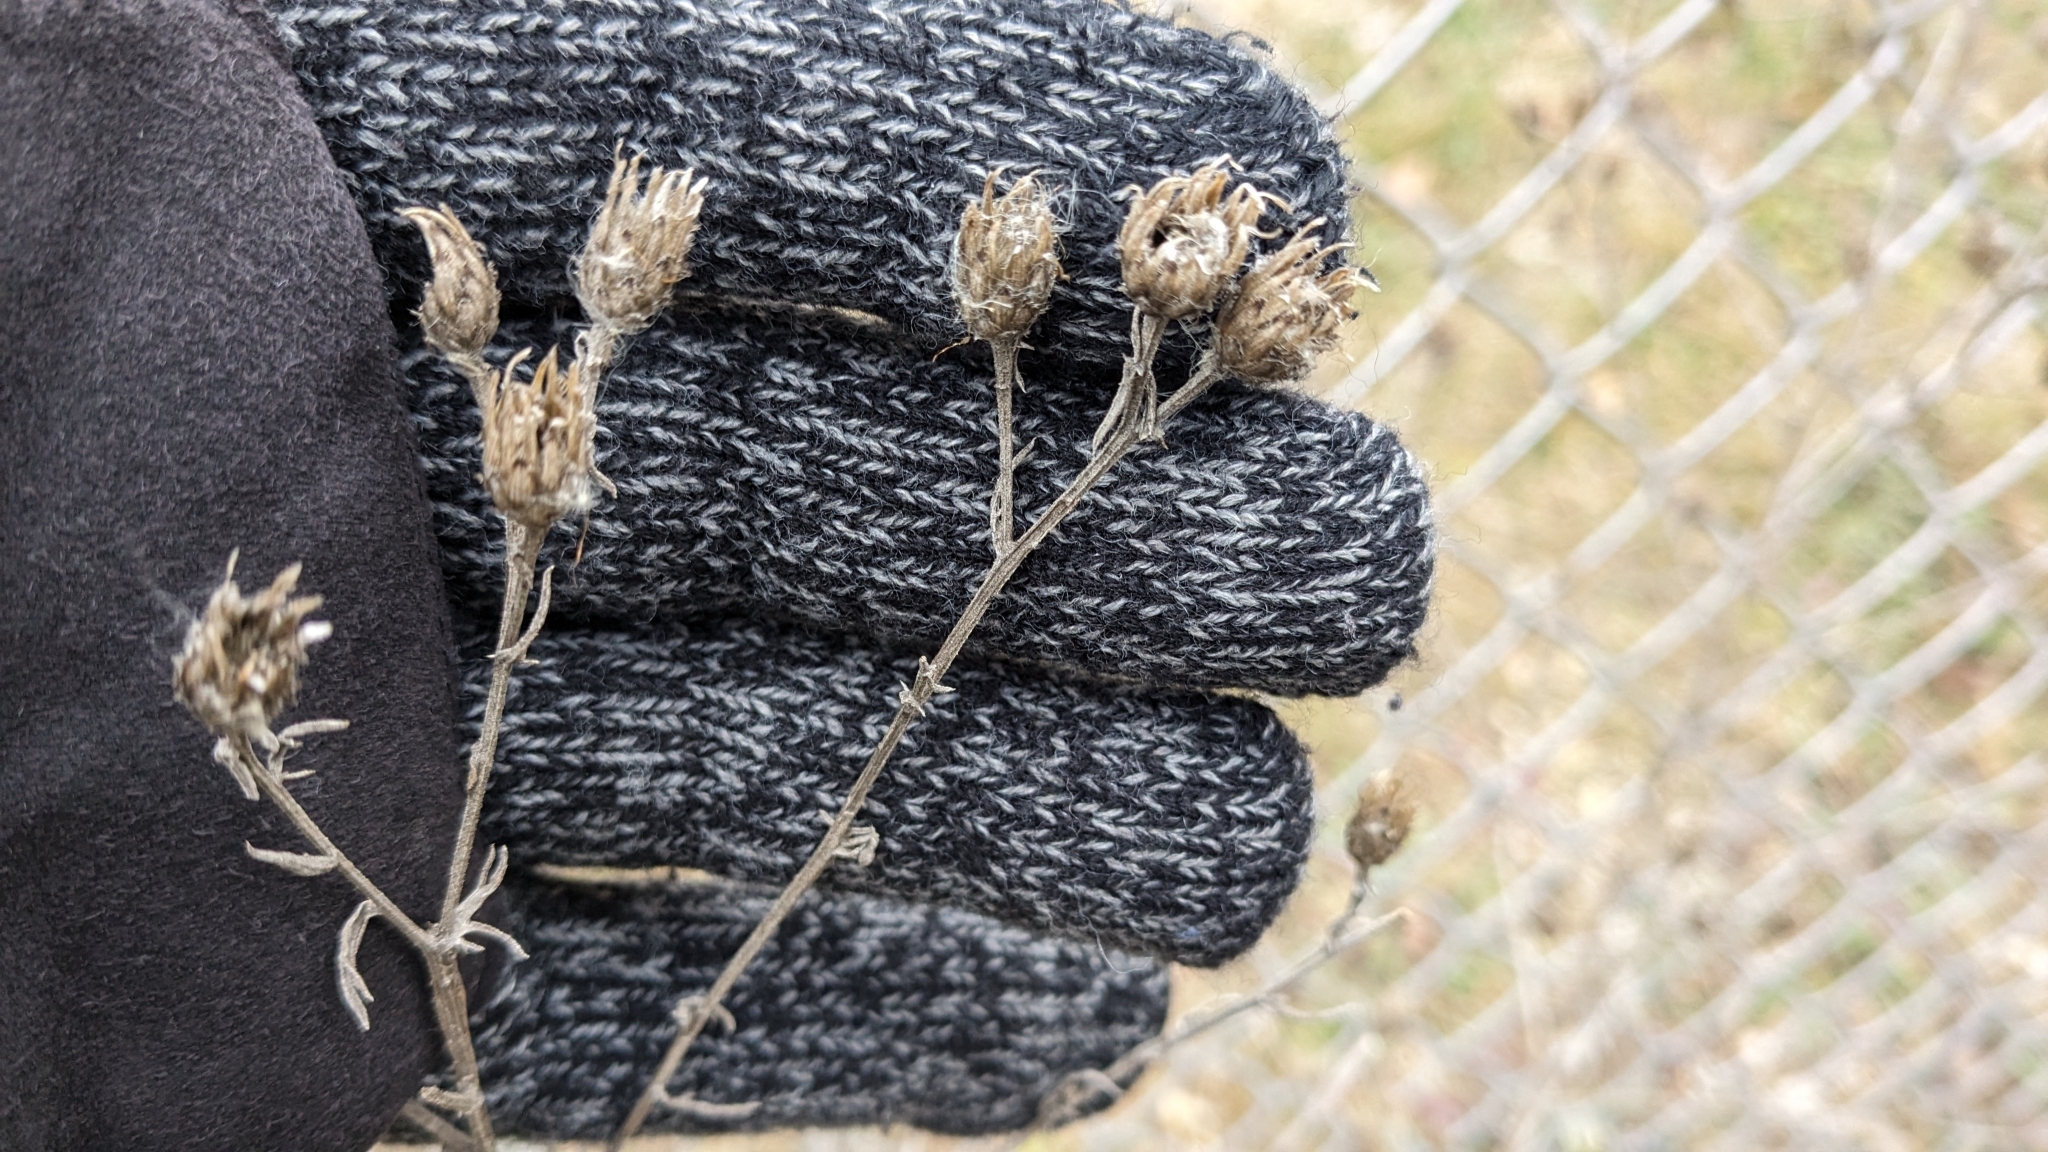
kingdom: Plantae
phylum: Tracheophyta
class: Magnoliopsida
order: Asterales
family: Asteraceae
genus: Centaurea
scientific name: Centaurea stoebe
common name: Spotted knapweed
